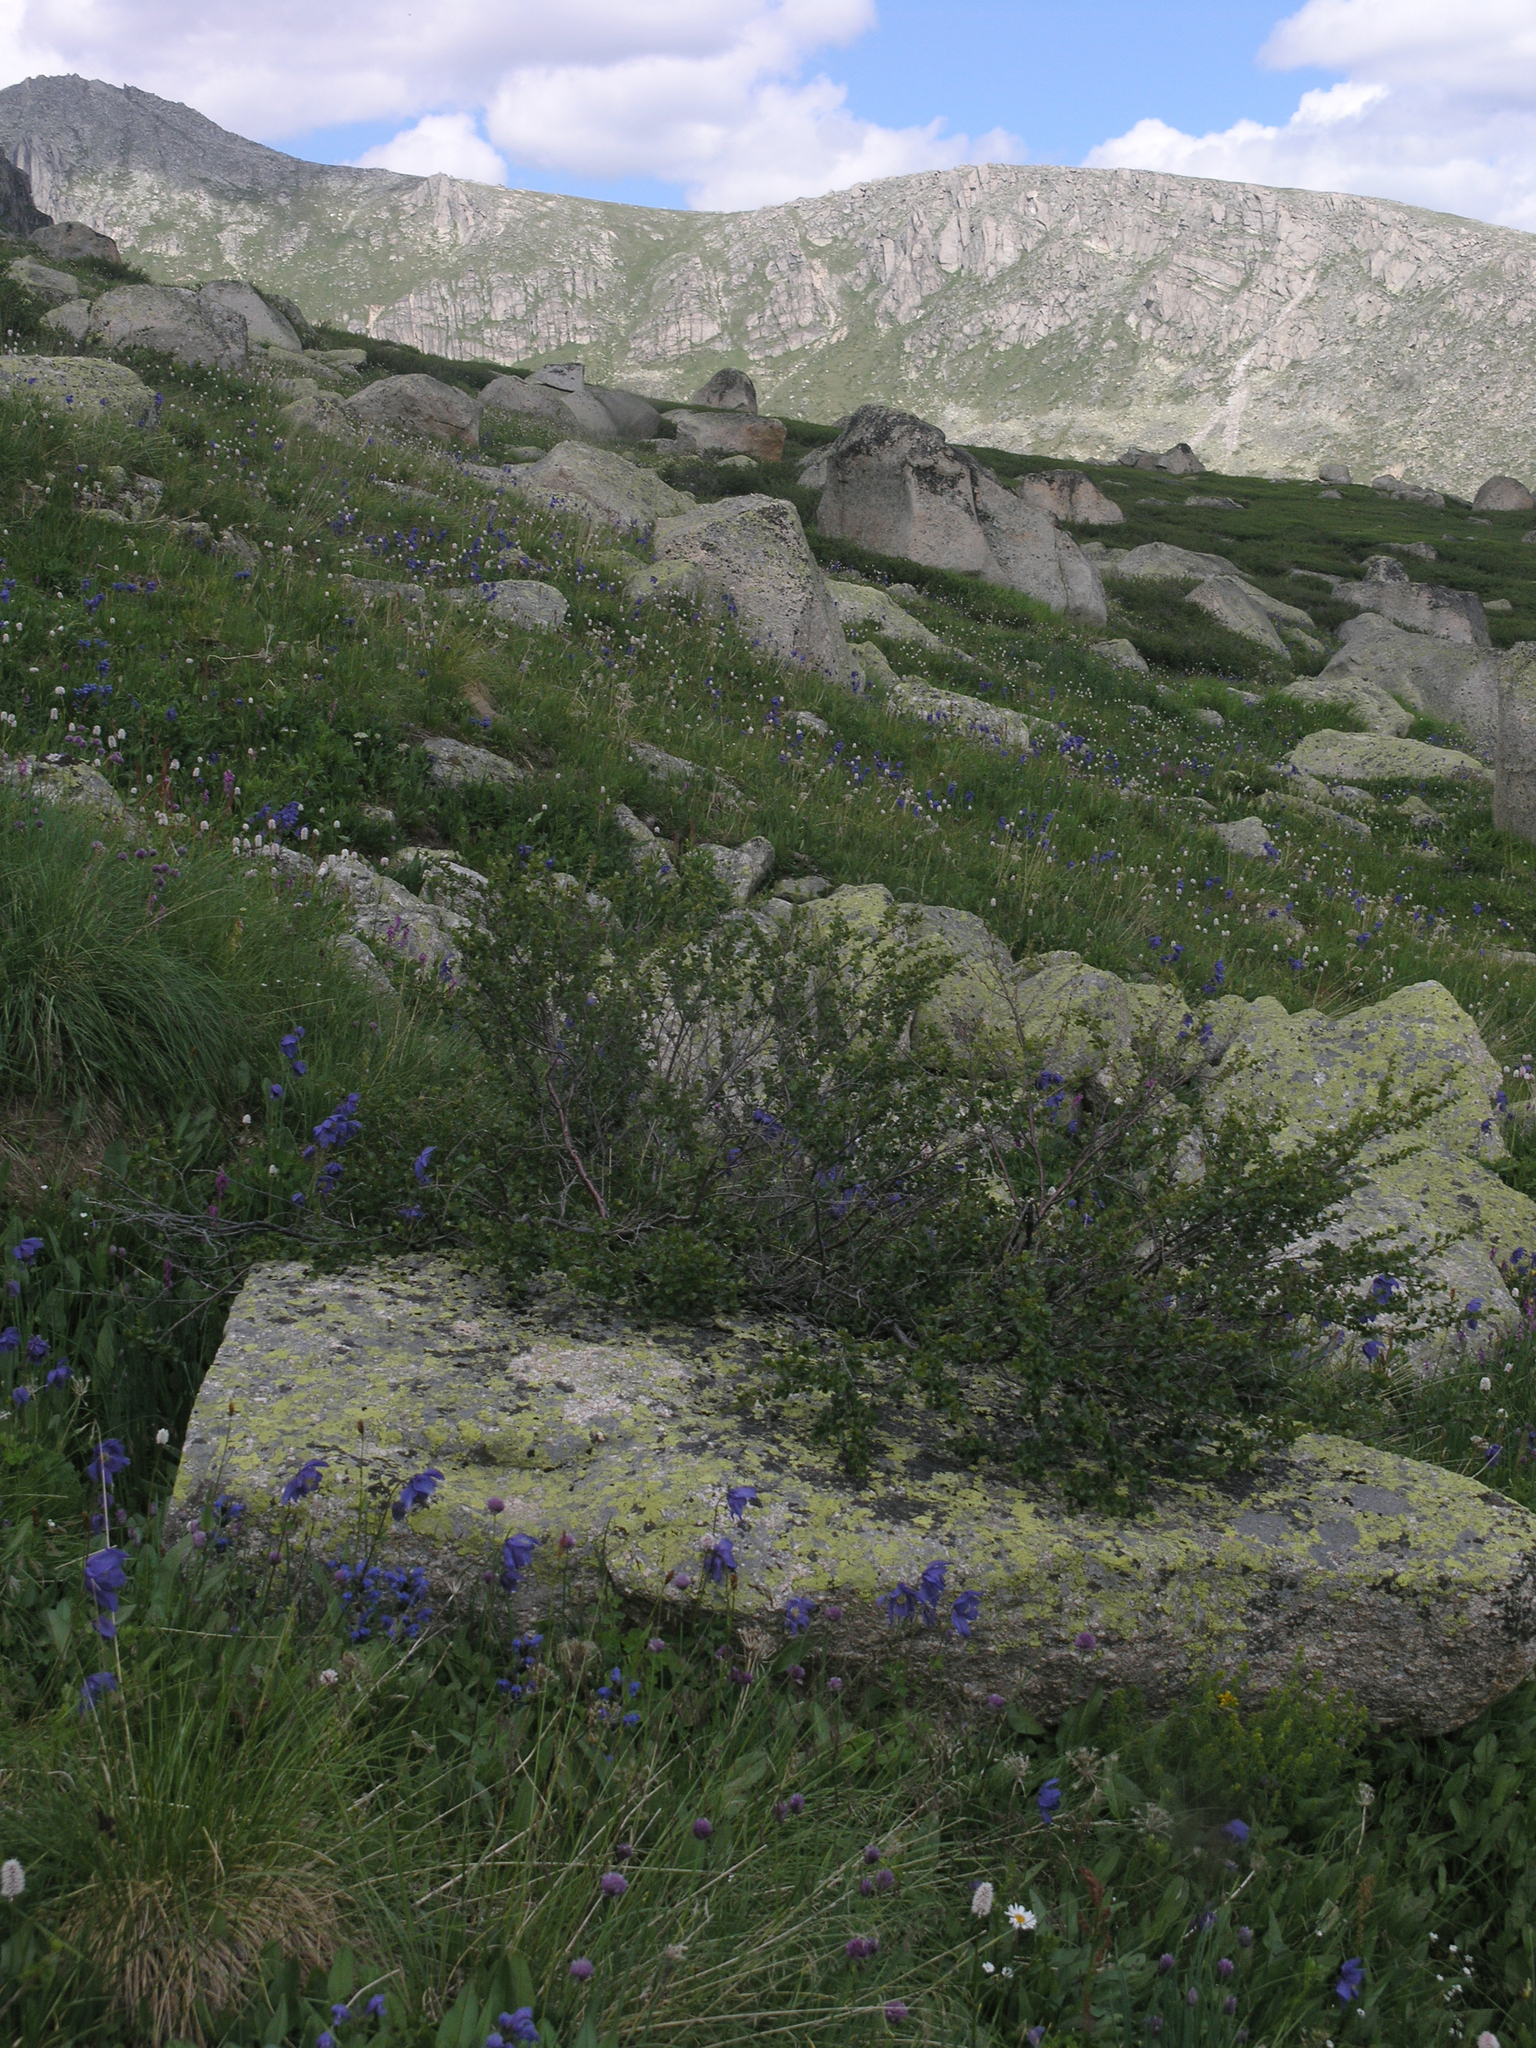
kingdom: Plantae
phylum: Tracheophyta
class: Magnoliopsida
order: Ranunculales
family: Ranunculaceae
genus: Aquilegia
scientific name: Aquilegia glandulosa
